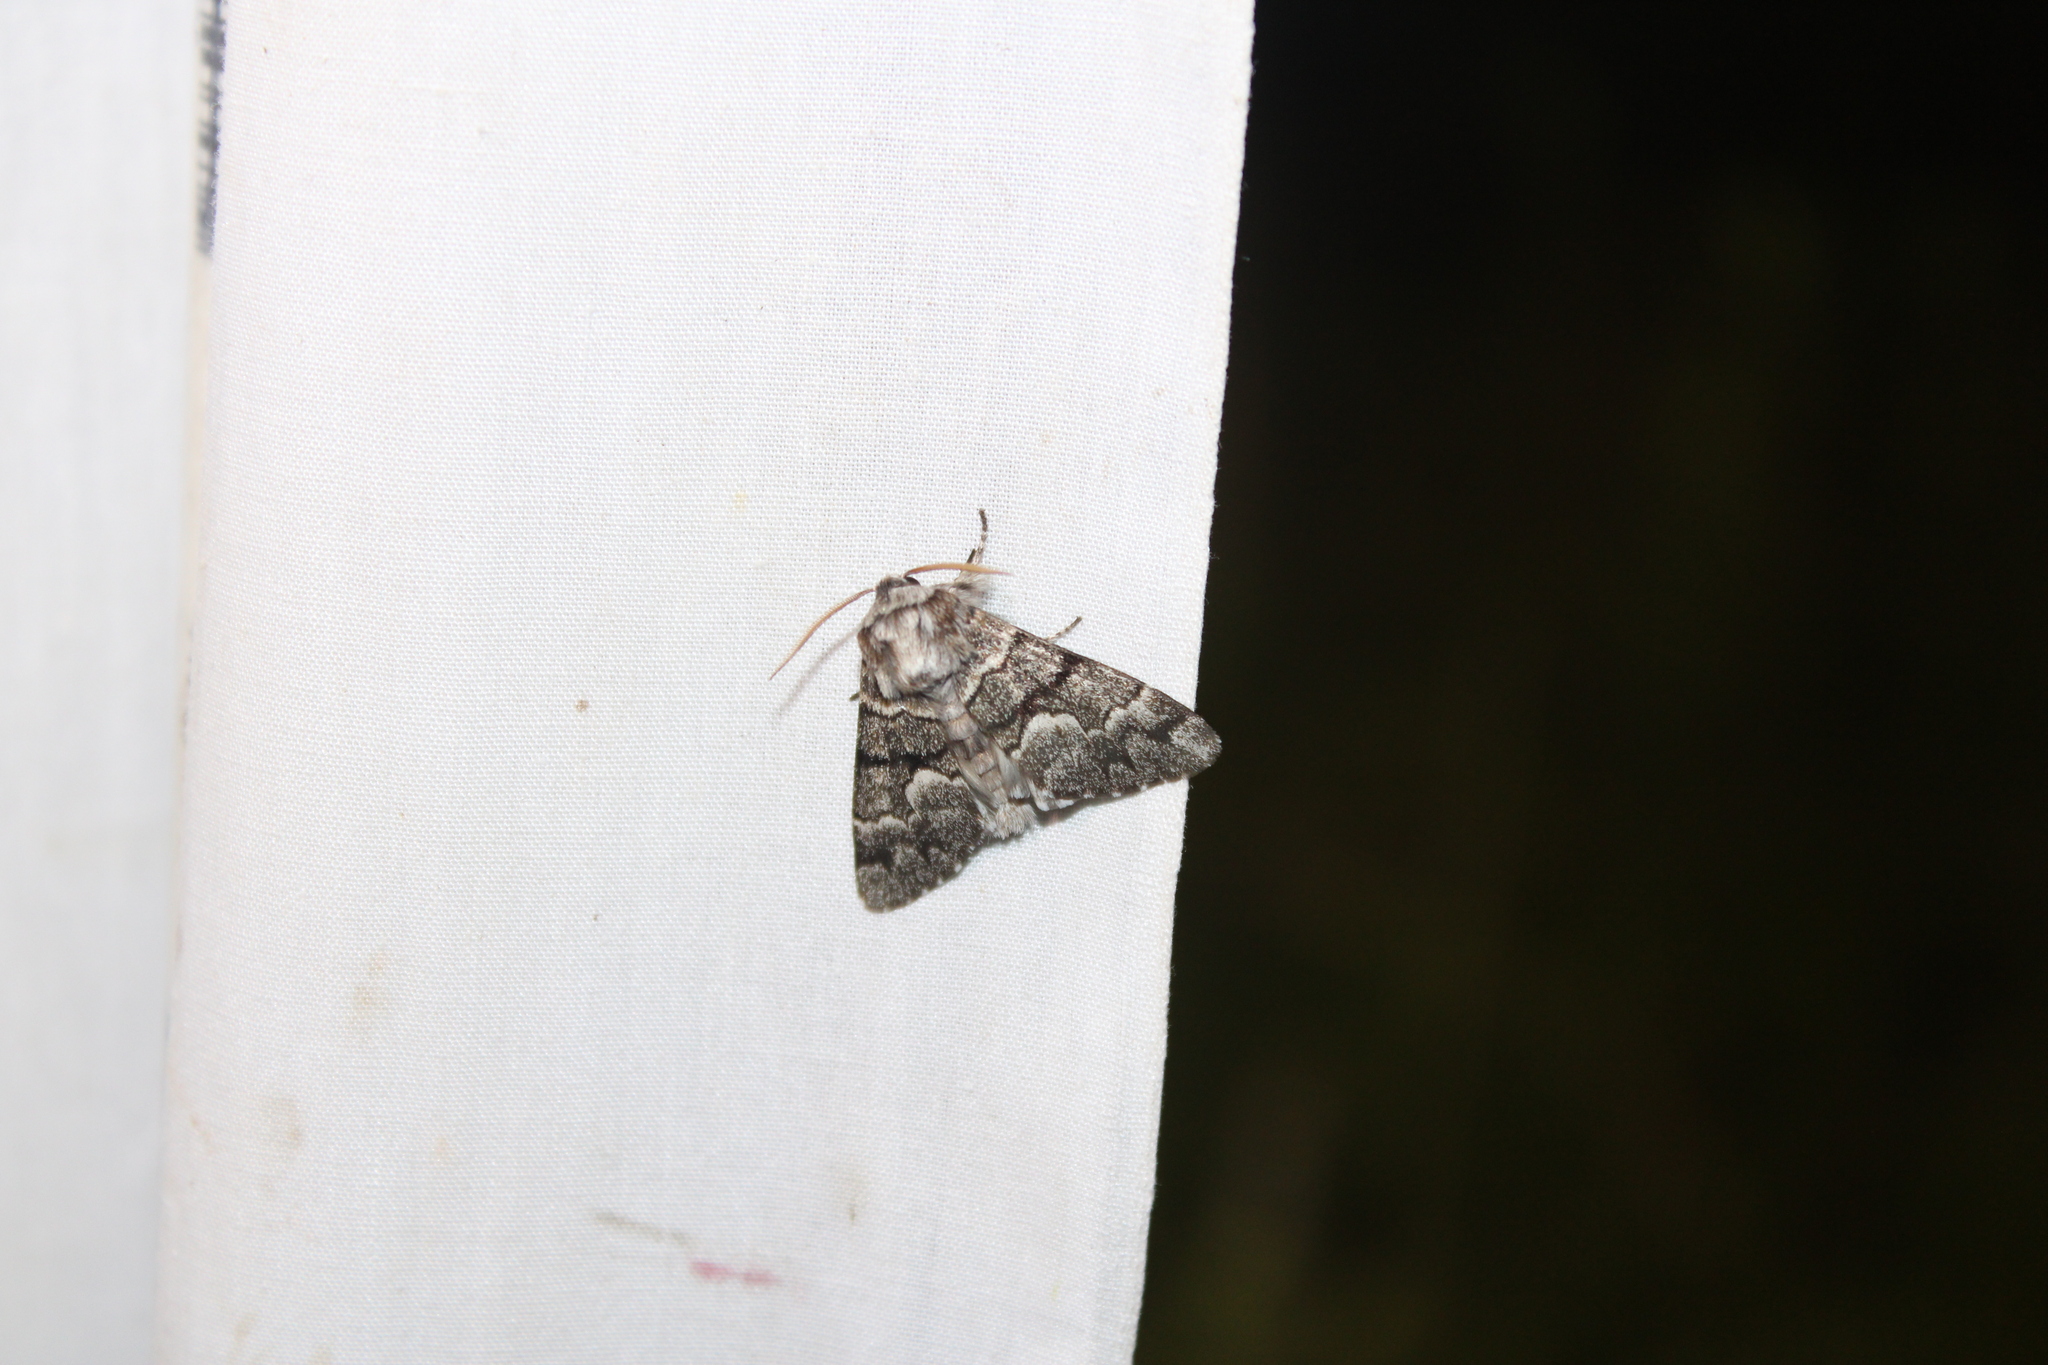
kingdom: Animalia
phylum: Arthropoda
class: Insecta
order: Lepidoptera
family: Noctuidae
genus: Panthea
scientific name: Panthea furcilla
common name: Eastern panthea moth
